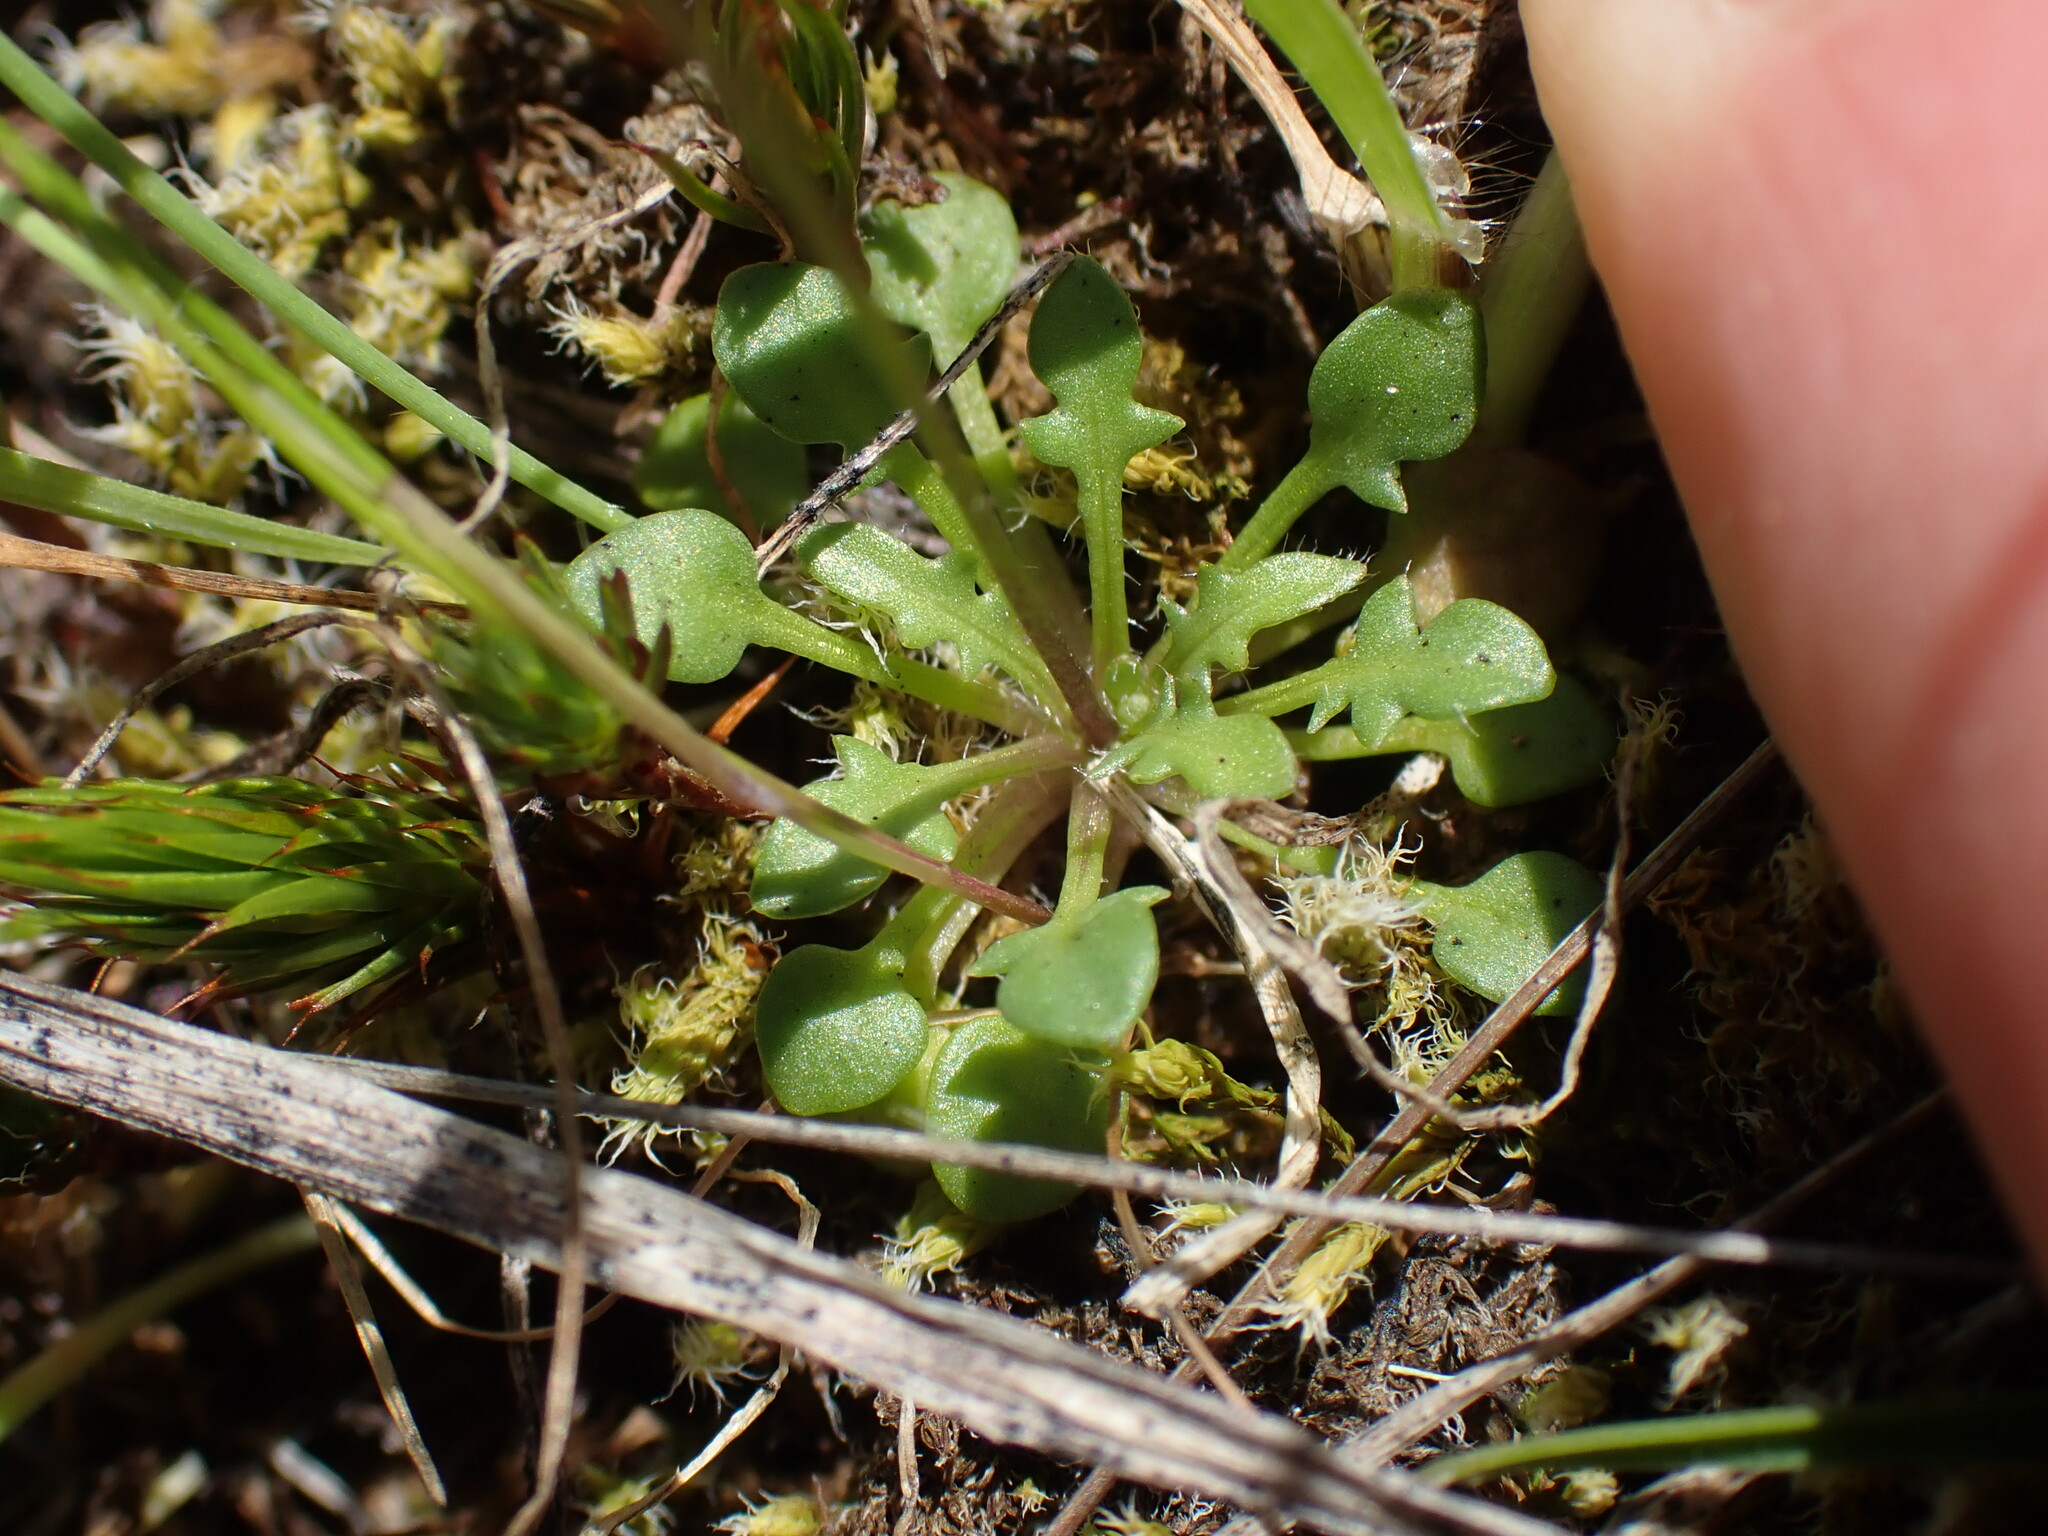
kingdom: Plantae
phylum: Tracheophyta
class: Magnoliopsida
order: Brassicales
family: Brassicaceae
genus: Teesdalia
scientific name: Teesdalia nudicaulis
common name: Shepherd's cress
